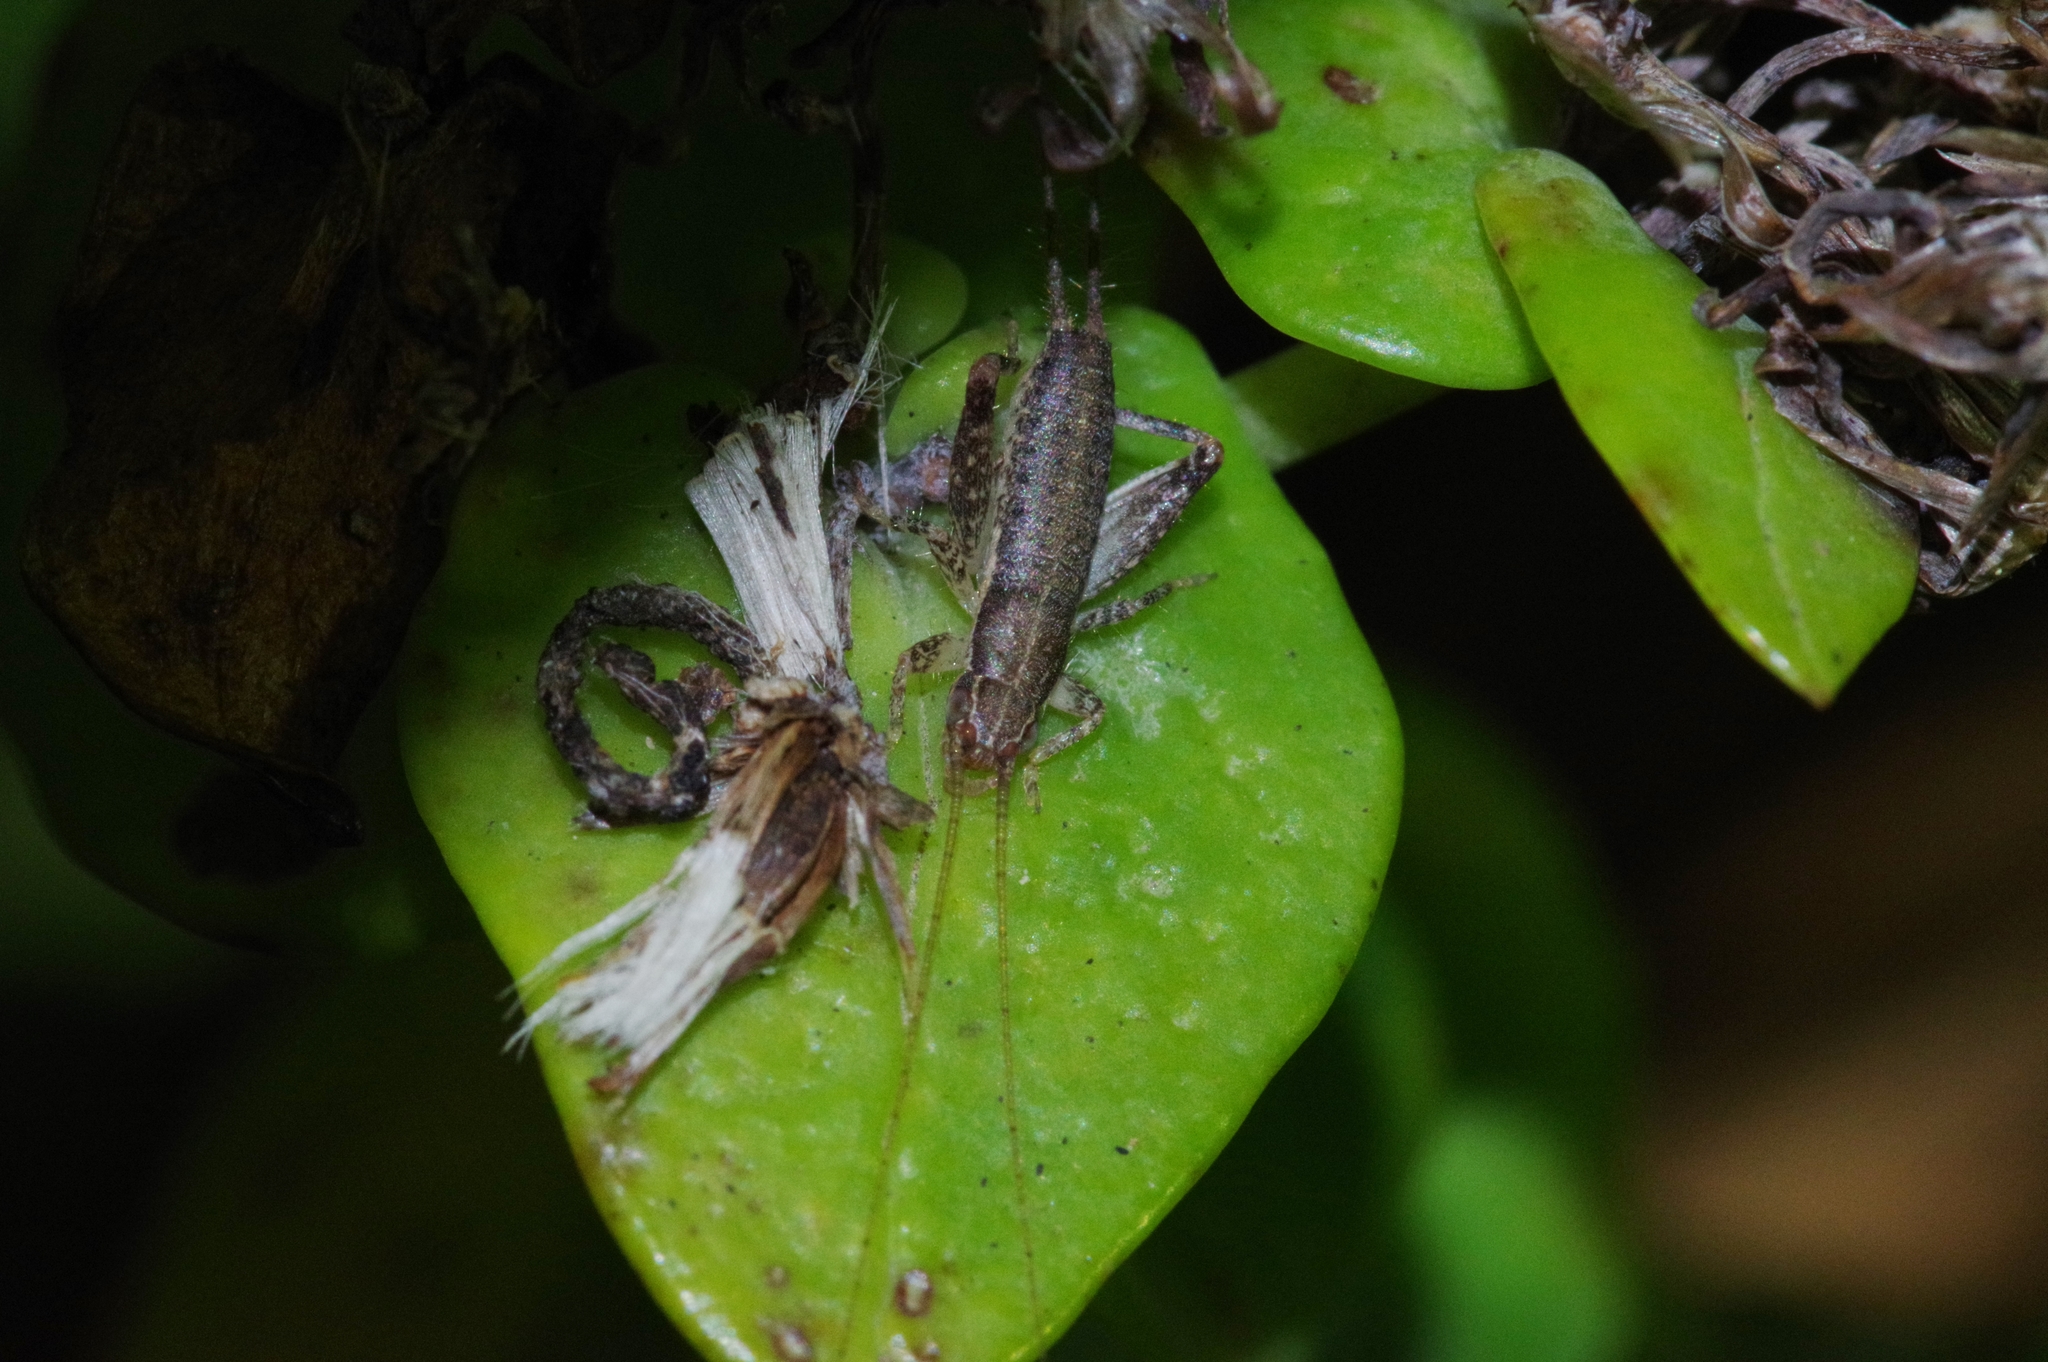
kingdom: Animalia
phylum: Arthropoda
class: Insecta
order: Orthoptera
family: Mogoplistidae
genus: Ornebius
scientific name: Ornebius kanetataki
